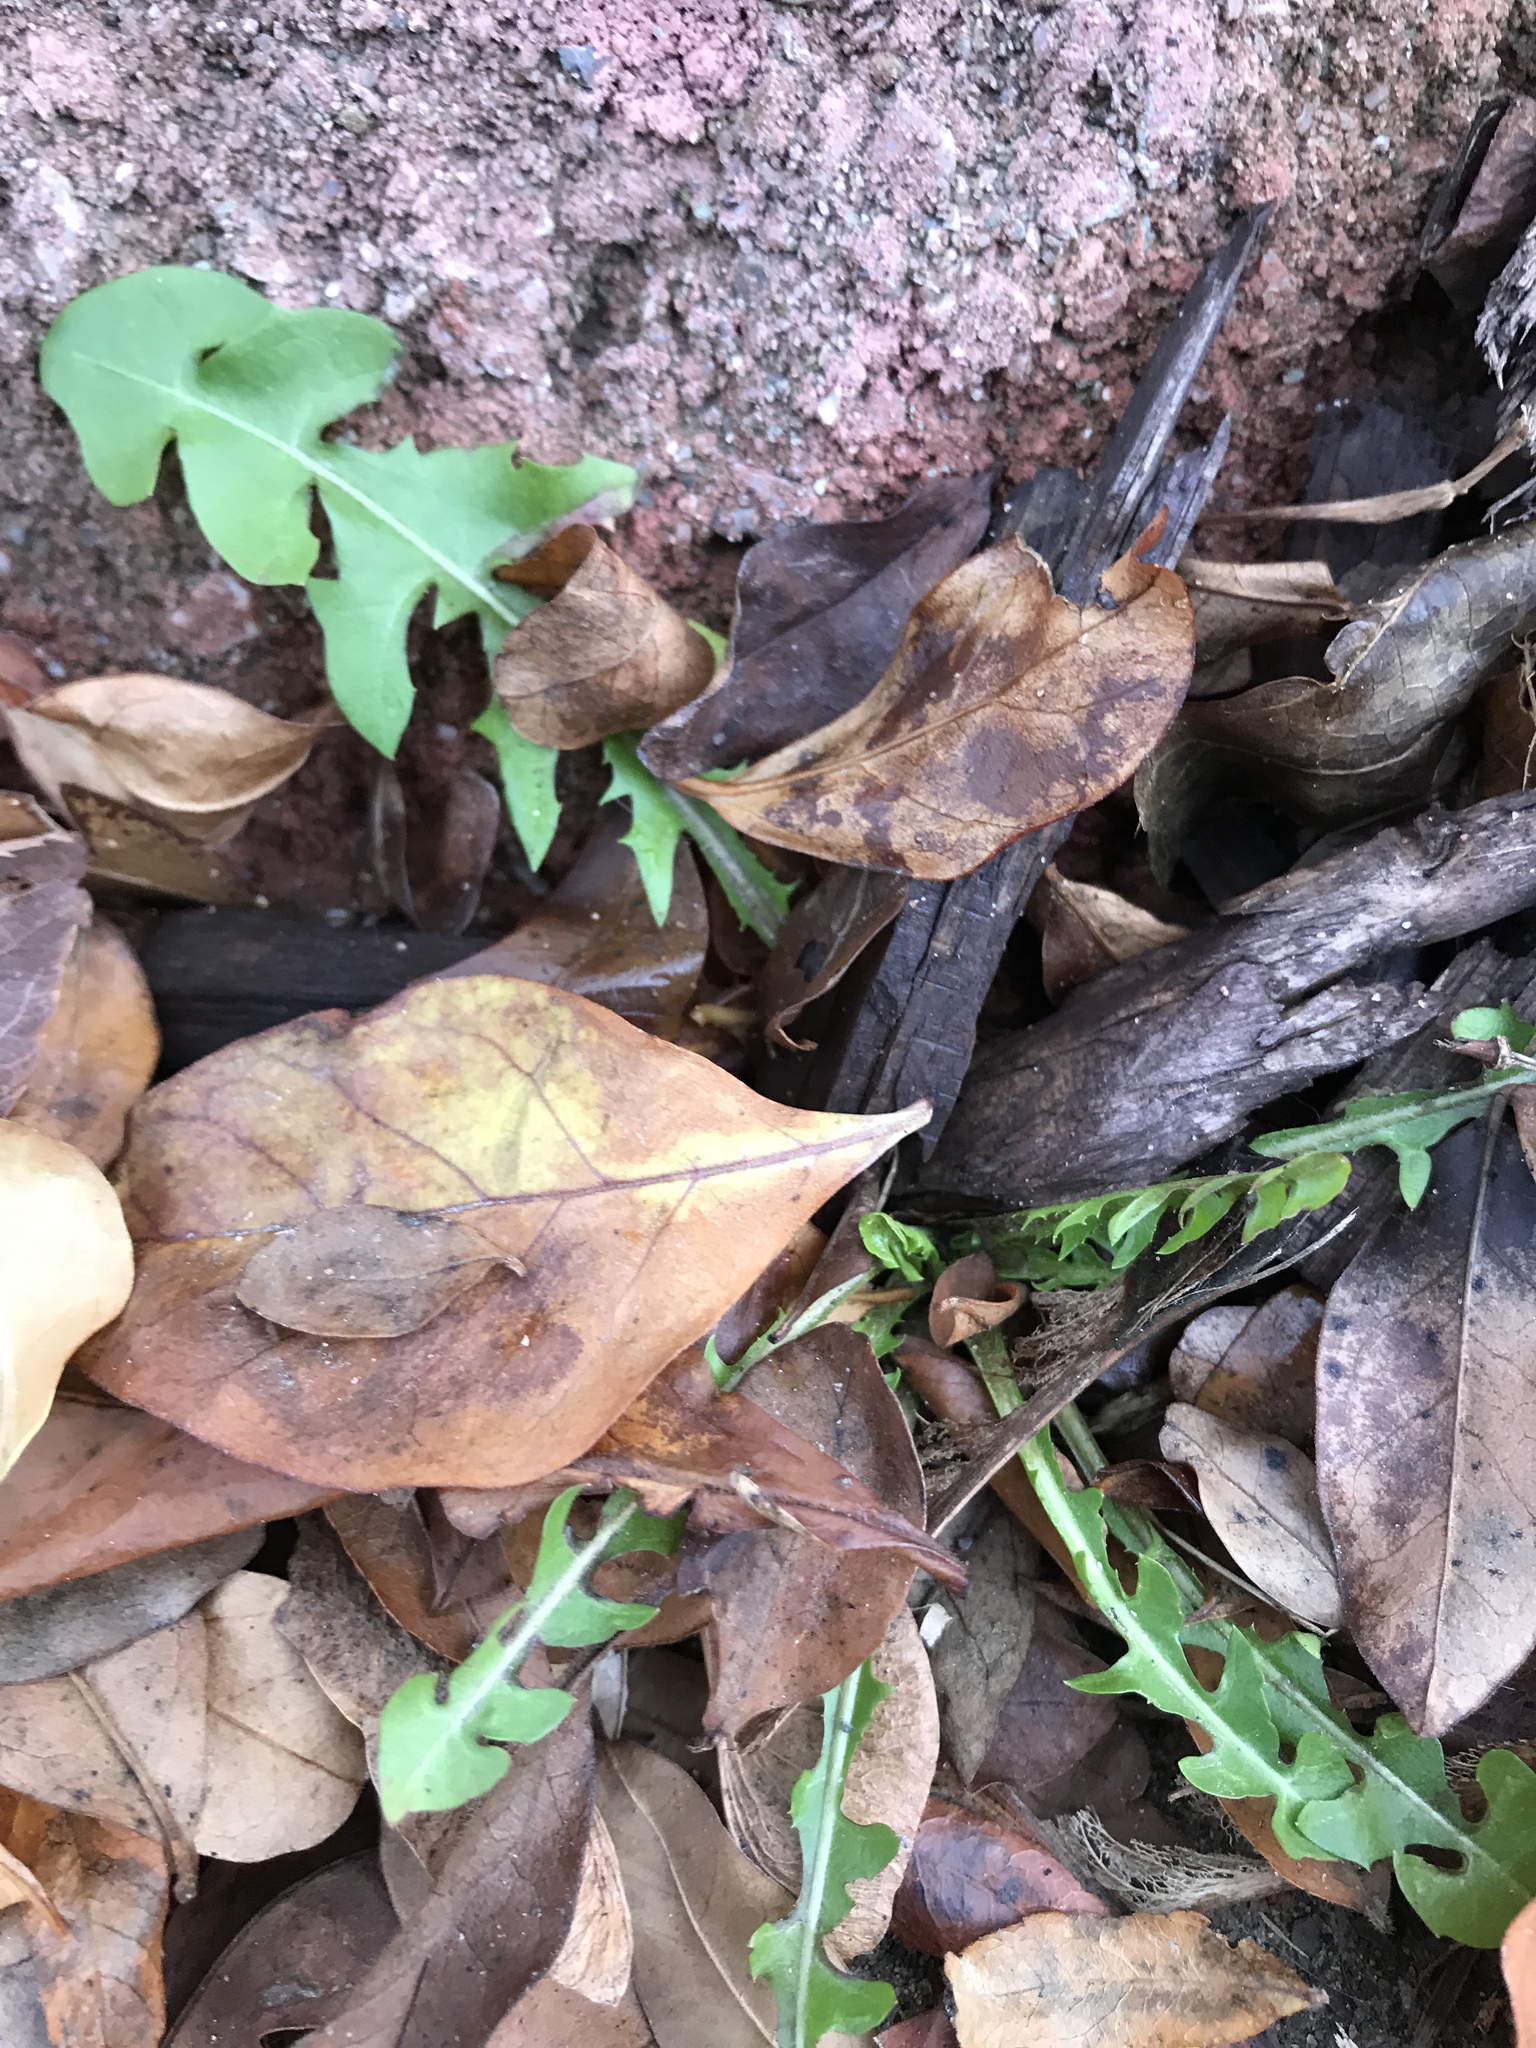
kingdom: Plantae
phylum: Tracheophyta
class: Magnoliopsida
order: Asterales
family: Asteraceae
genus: Taraxacum
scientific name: Taraxacum officinale
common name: Common dandelion
